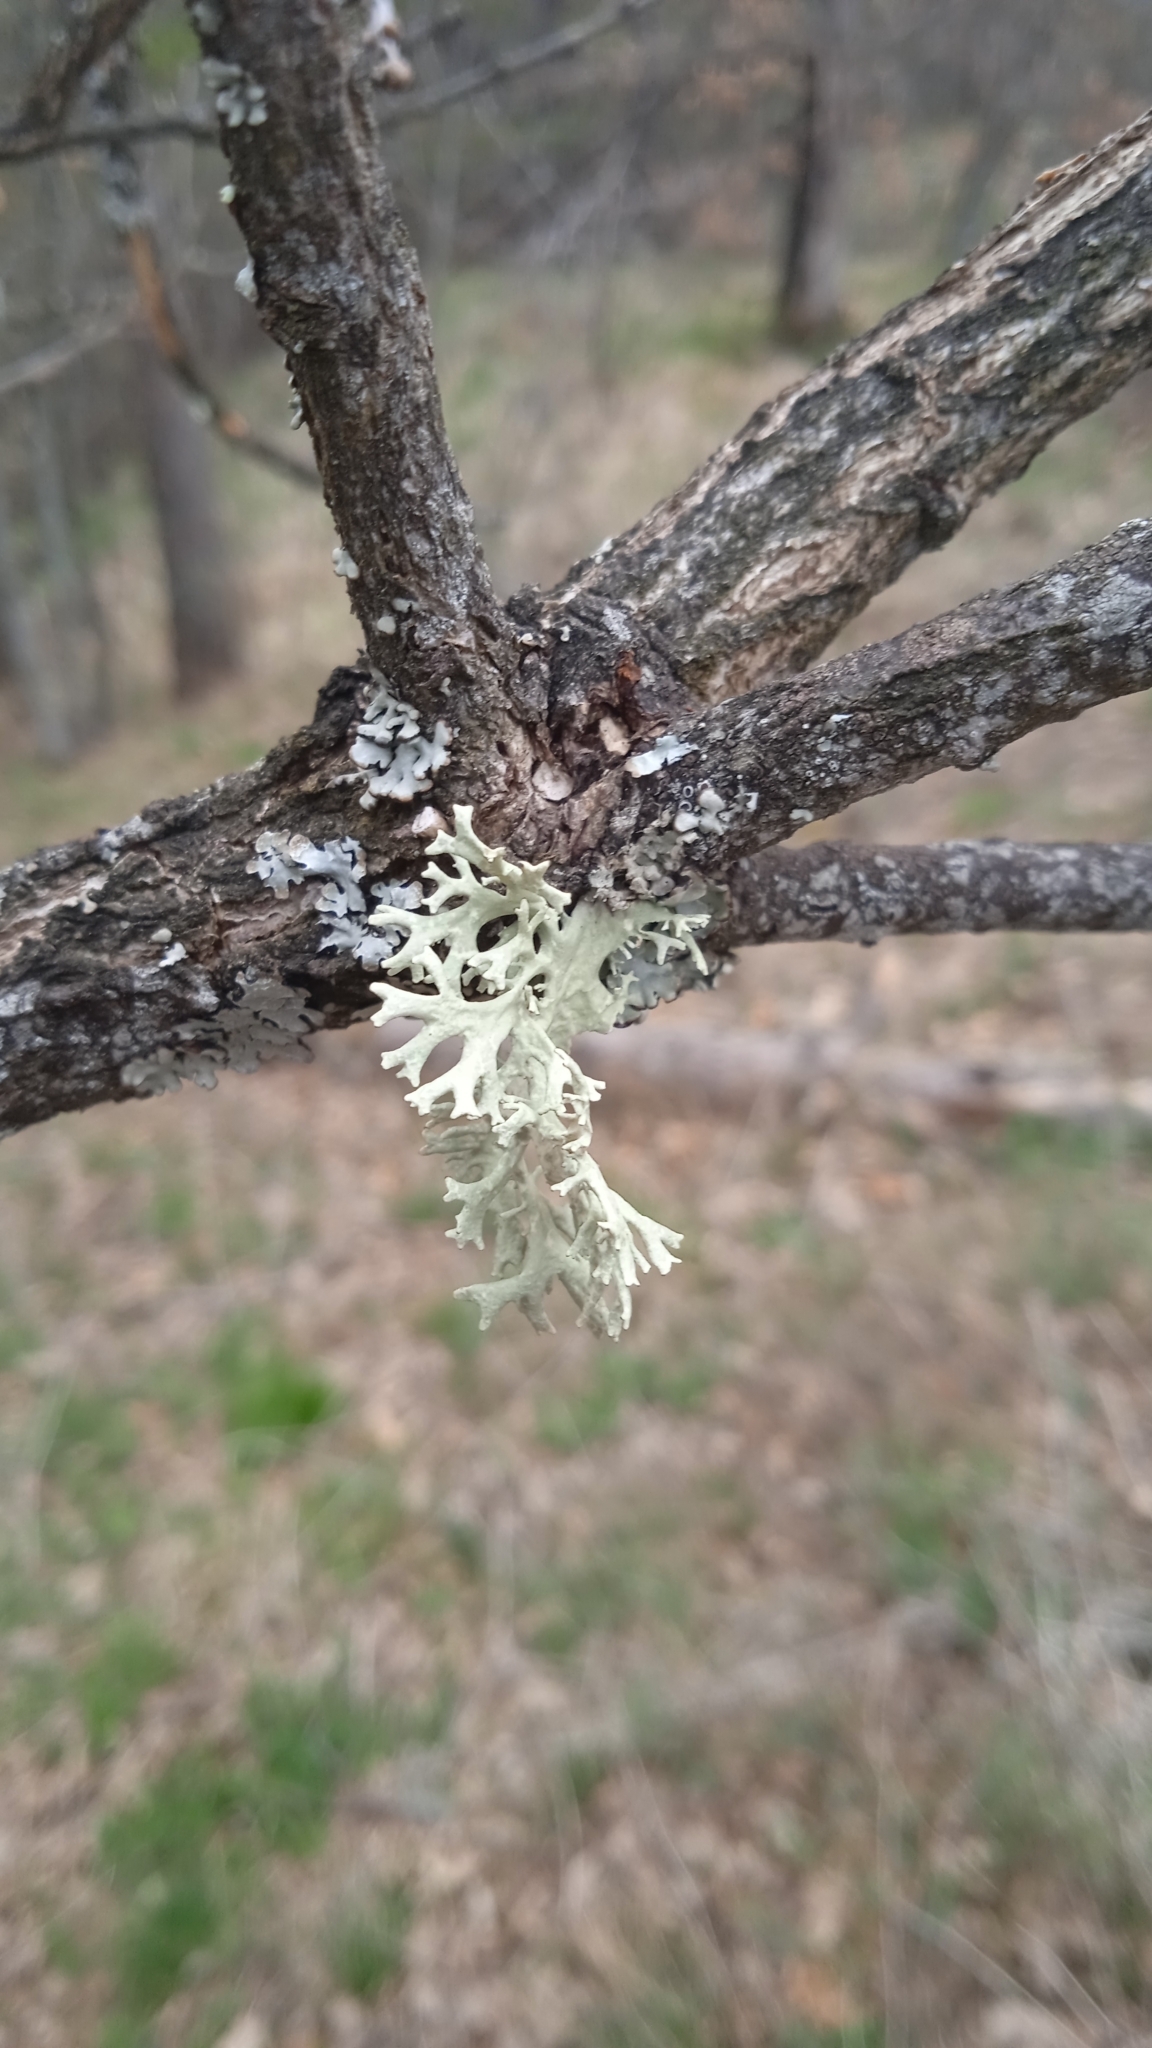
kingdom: Fungi
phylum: Ascomycota
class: Lecanoromycetes
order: Lecanorales
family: Parmeliaceae
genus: Evernia
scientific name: Evernia prunastri
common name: Oak moss
